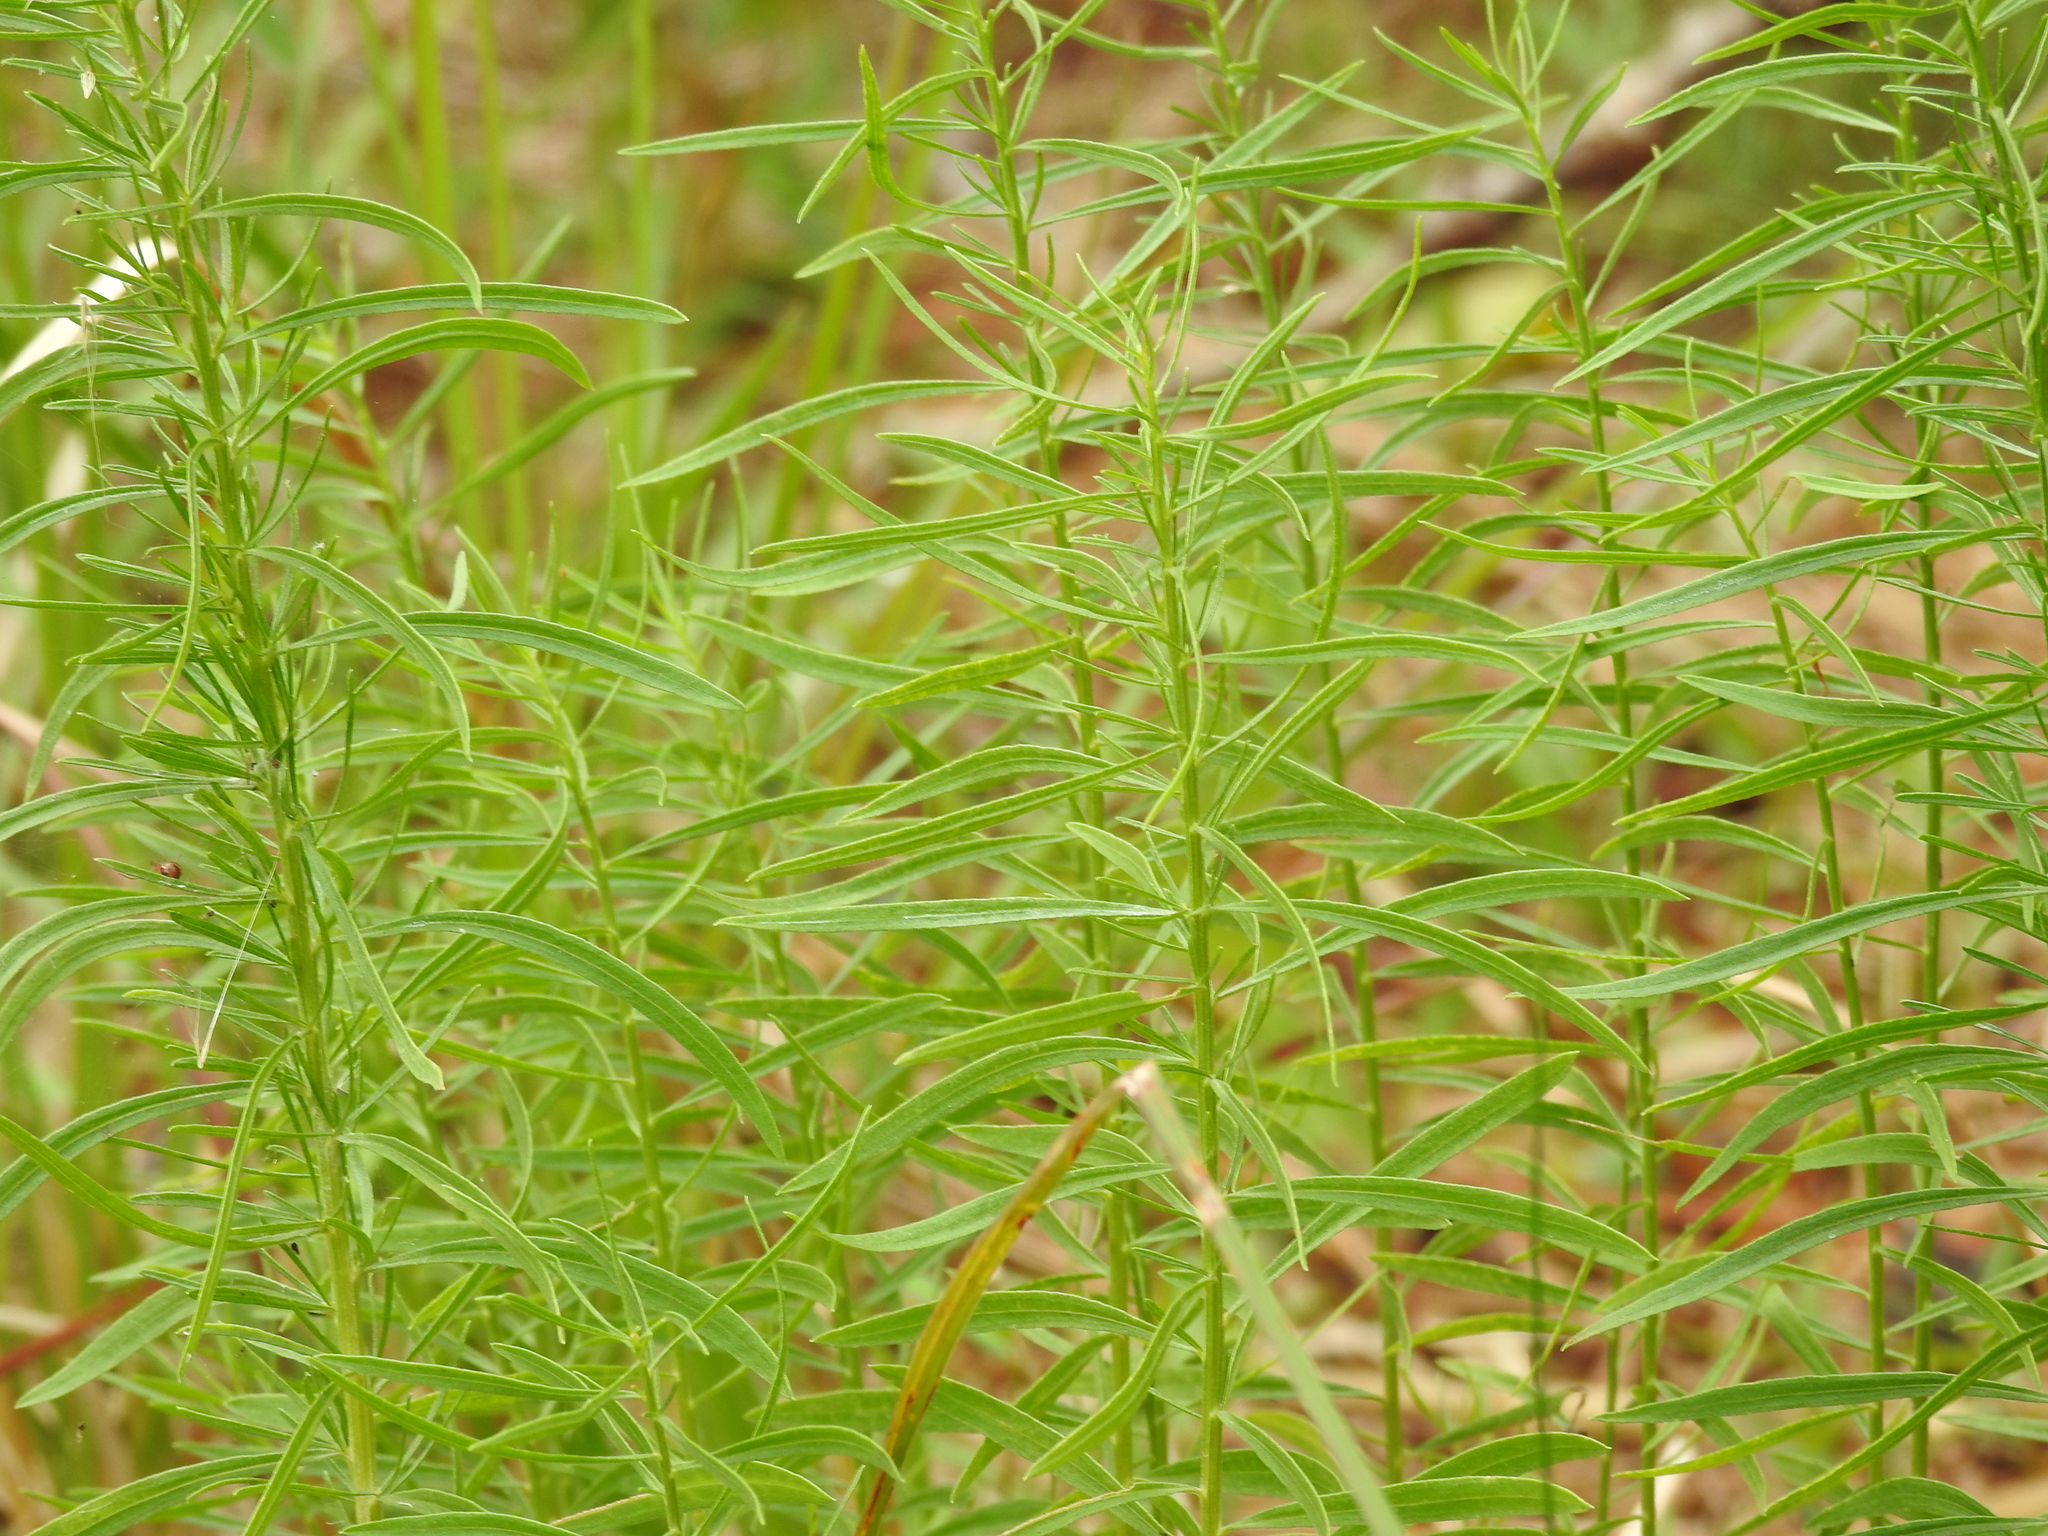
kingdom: Plantae
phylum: Tracheophyta
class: Magnoliopsida
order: Asterales
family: Asteraceae
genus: Euthamia
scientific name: Euthamia weakleyi
